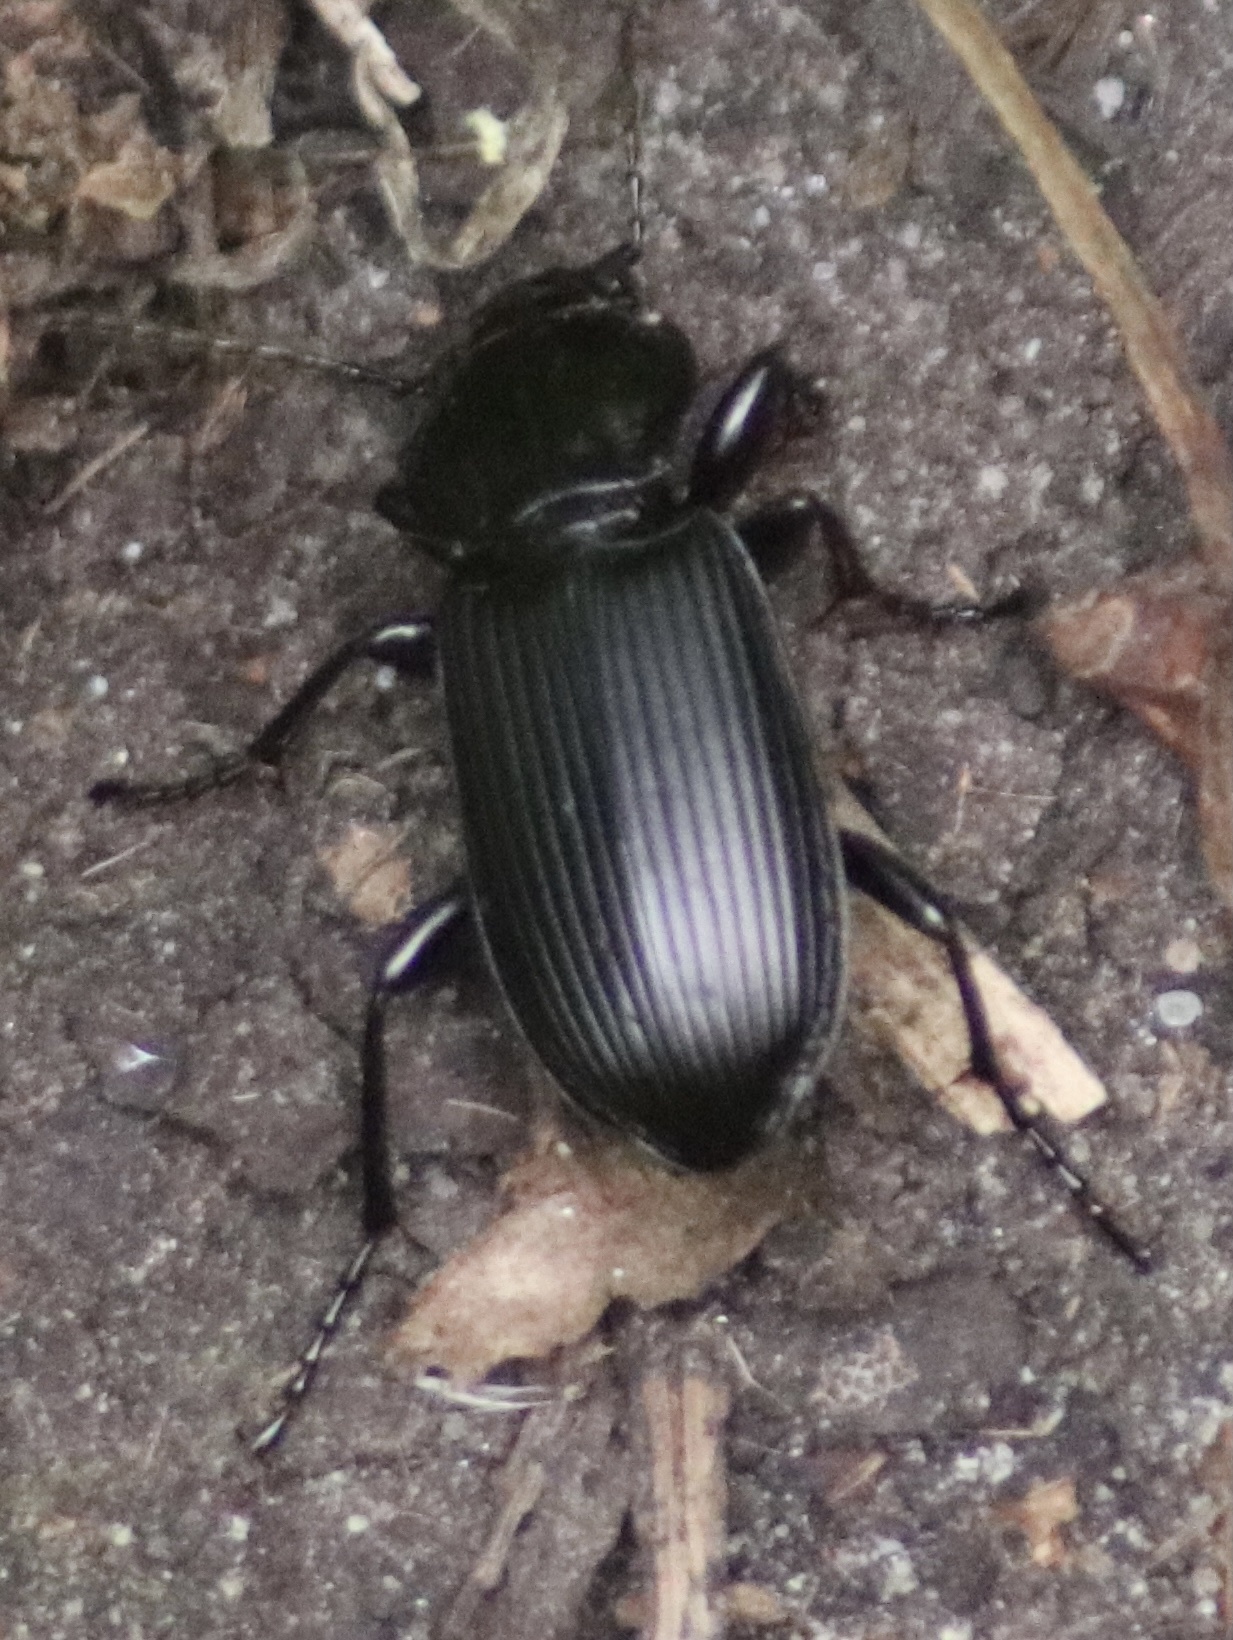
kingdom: Animalia
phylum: Arthropoda
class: Insecta
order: Coleoptera
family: Carabidae
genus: Pterostichus
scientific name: Pterostichus melanarius
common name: European dark harp ground beetle
